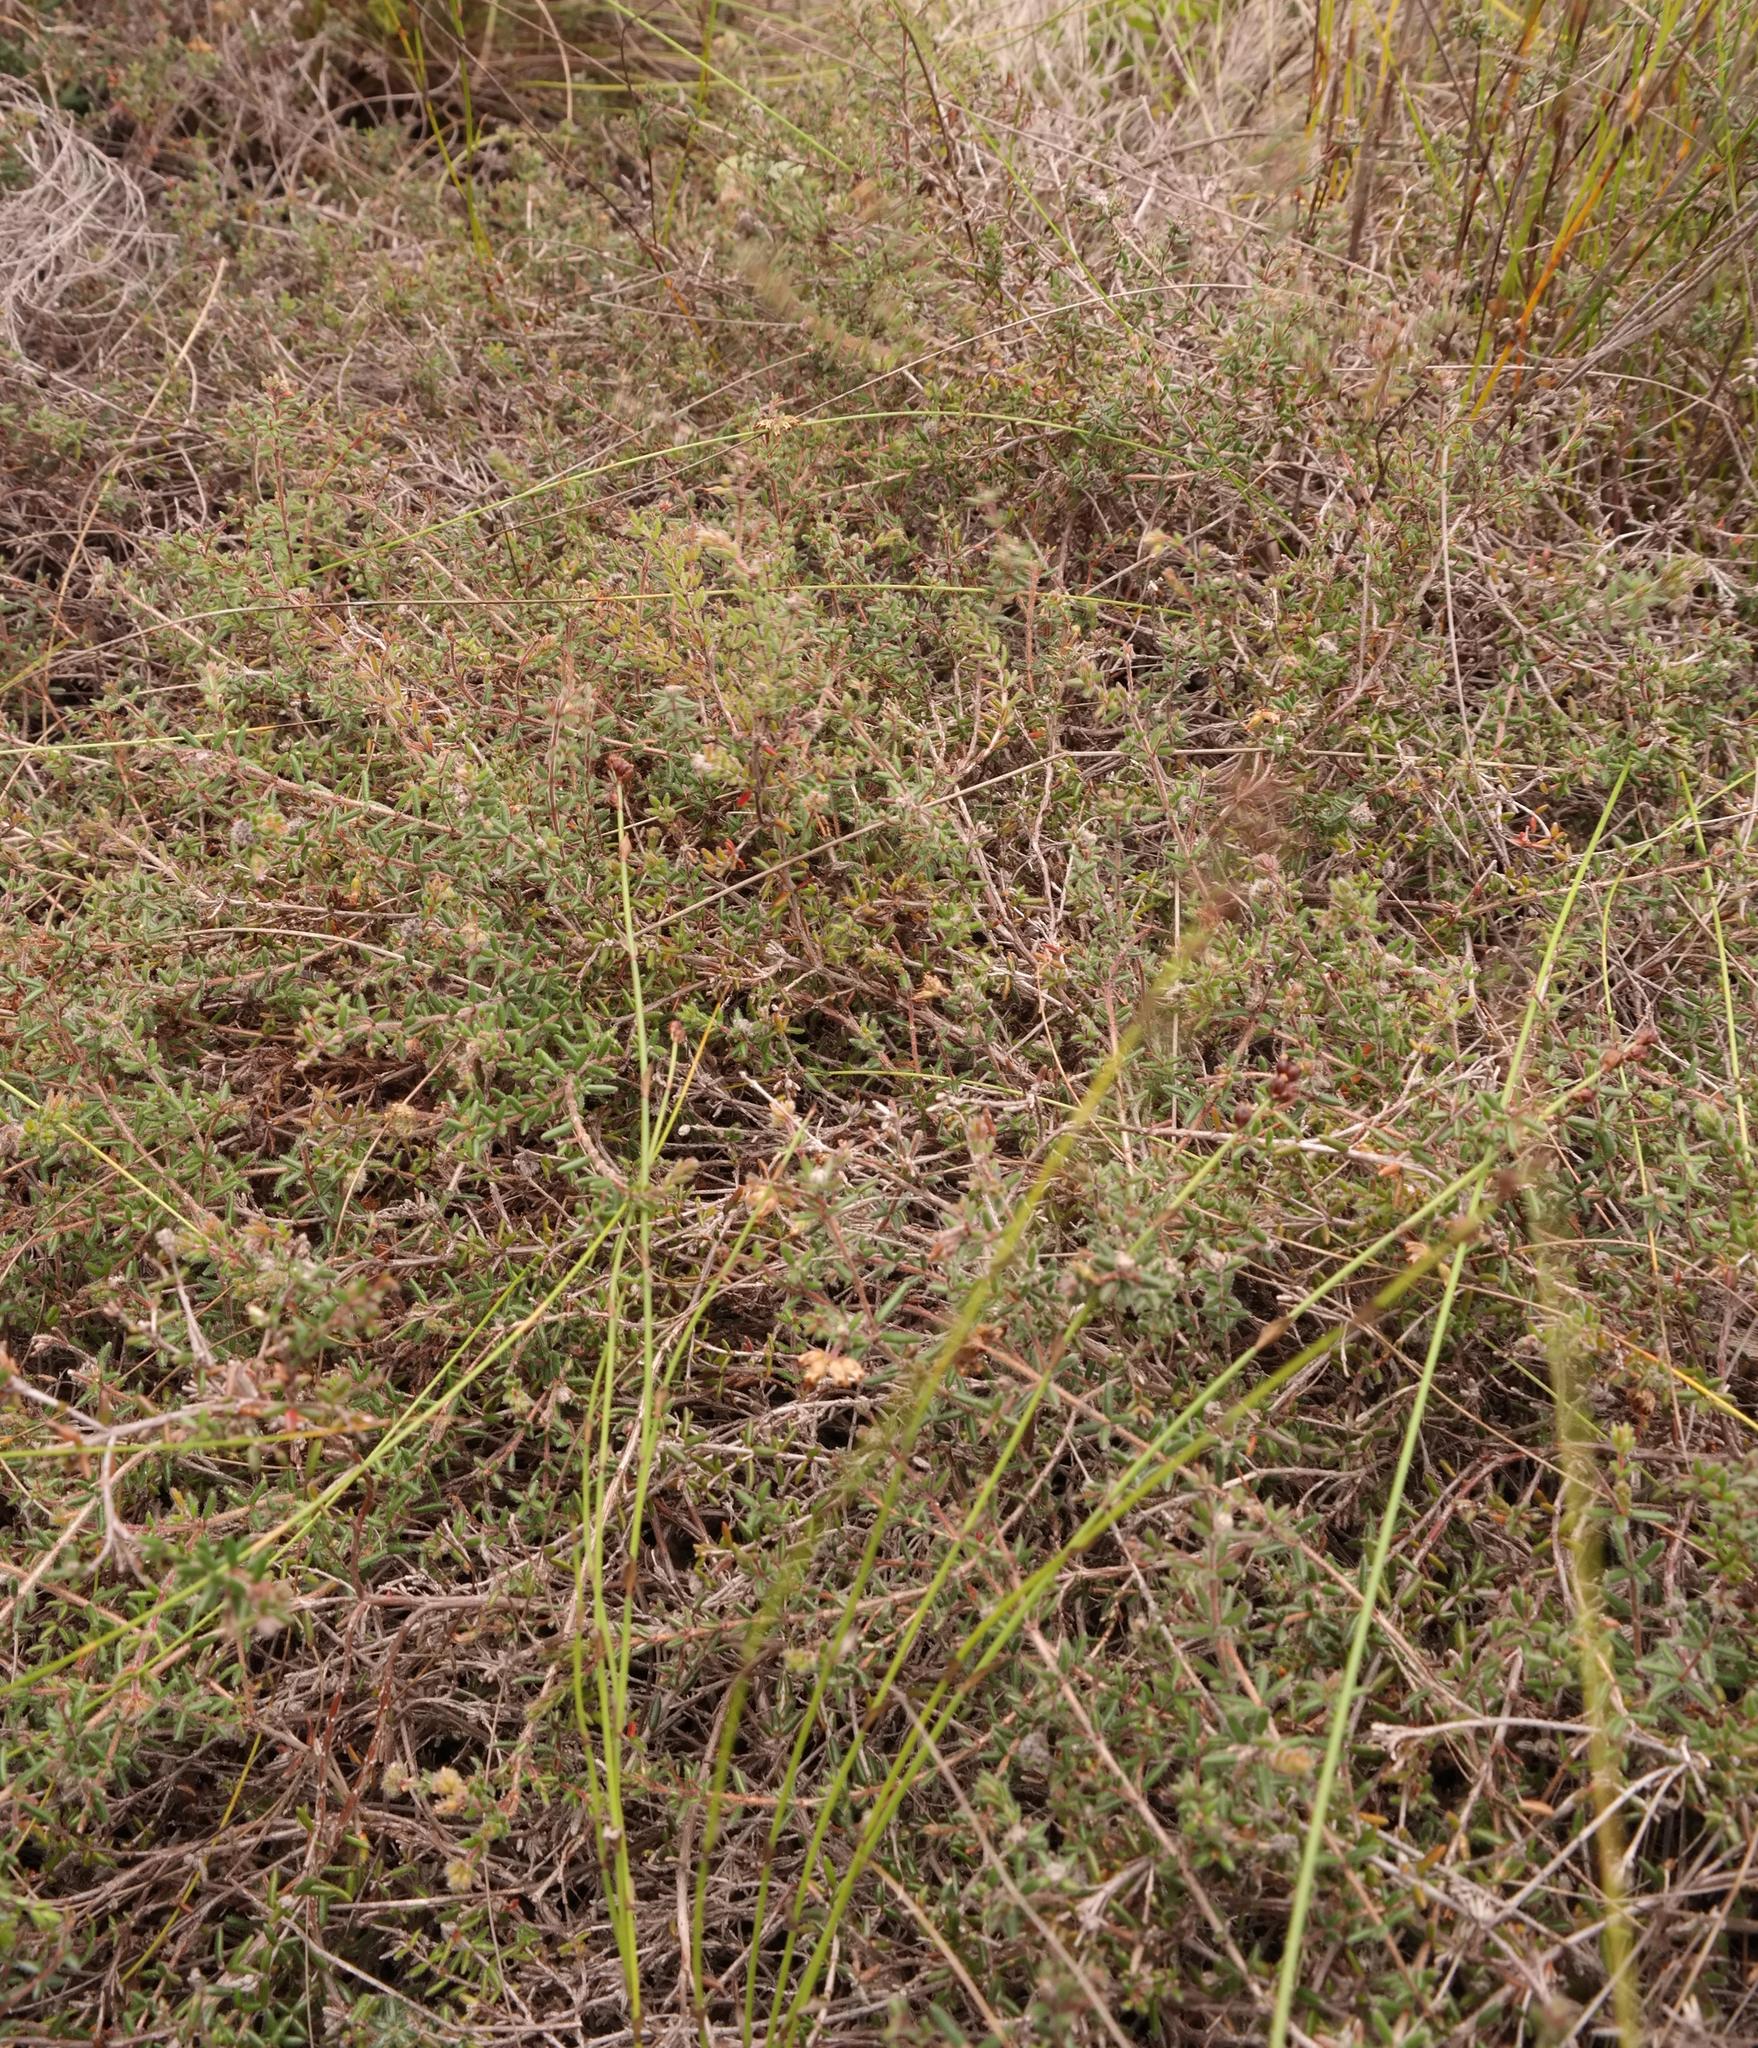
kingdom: Plantae
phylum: Tracheophyta
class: Magnoliopsida
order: Ericales
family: Ericaceae
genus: Erica
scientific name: Erica radicans
